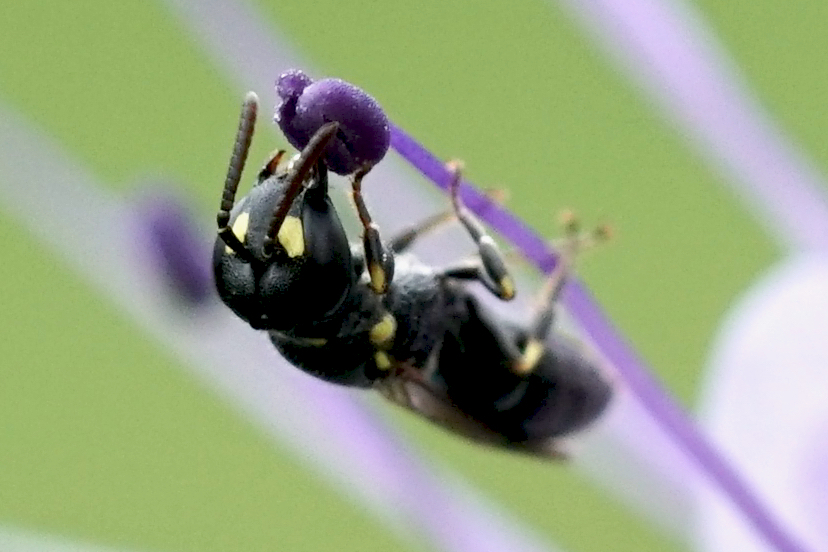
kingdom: Animalia
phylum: Arthropoda
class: Insecta
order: Hymenoptera
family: Colletidae
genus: Hylaeus
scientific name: Hylaeus pictipes
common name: Little yellow-face bee
